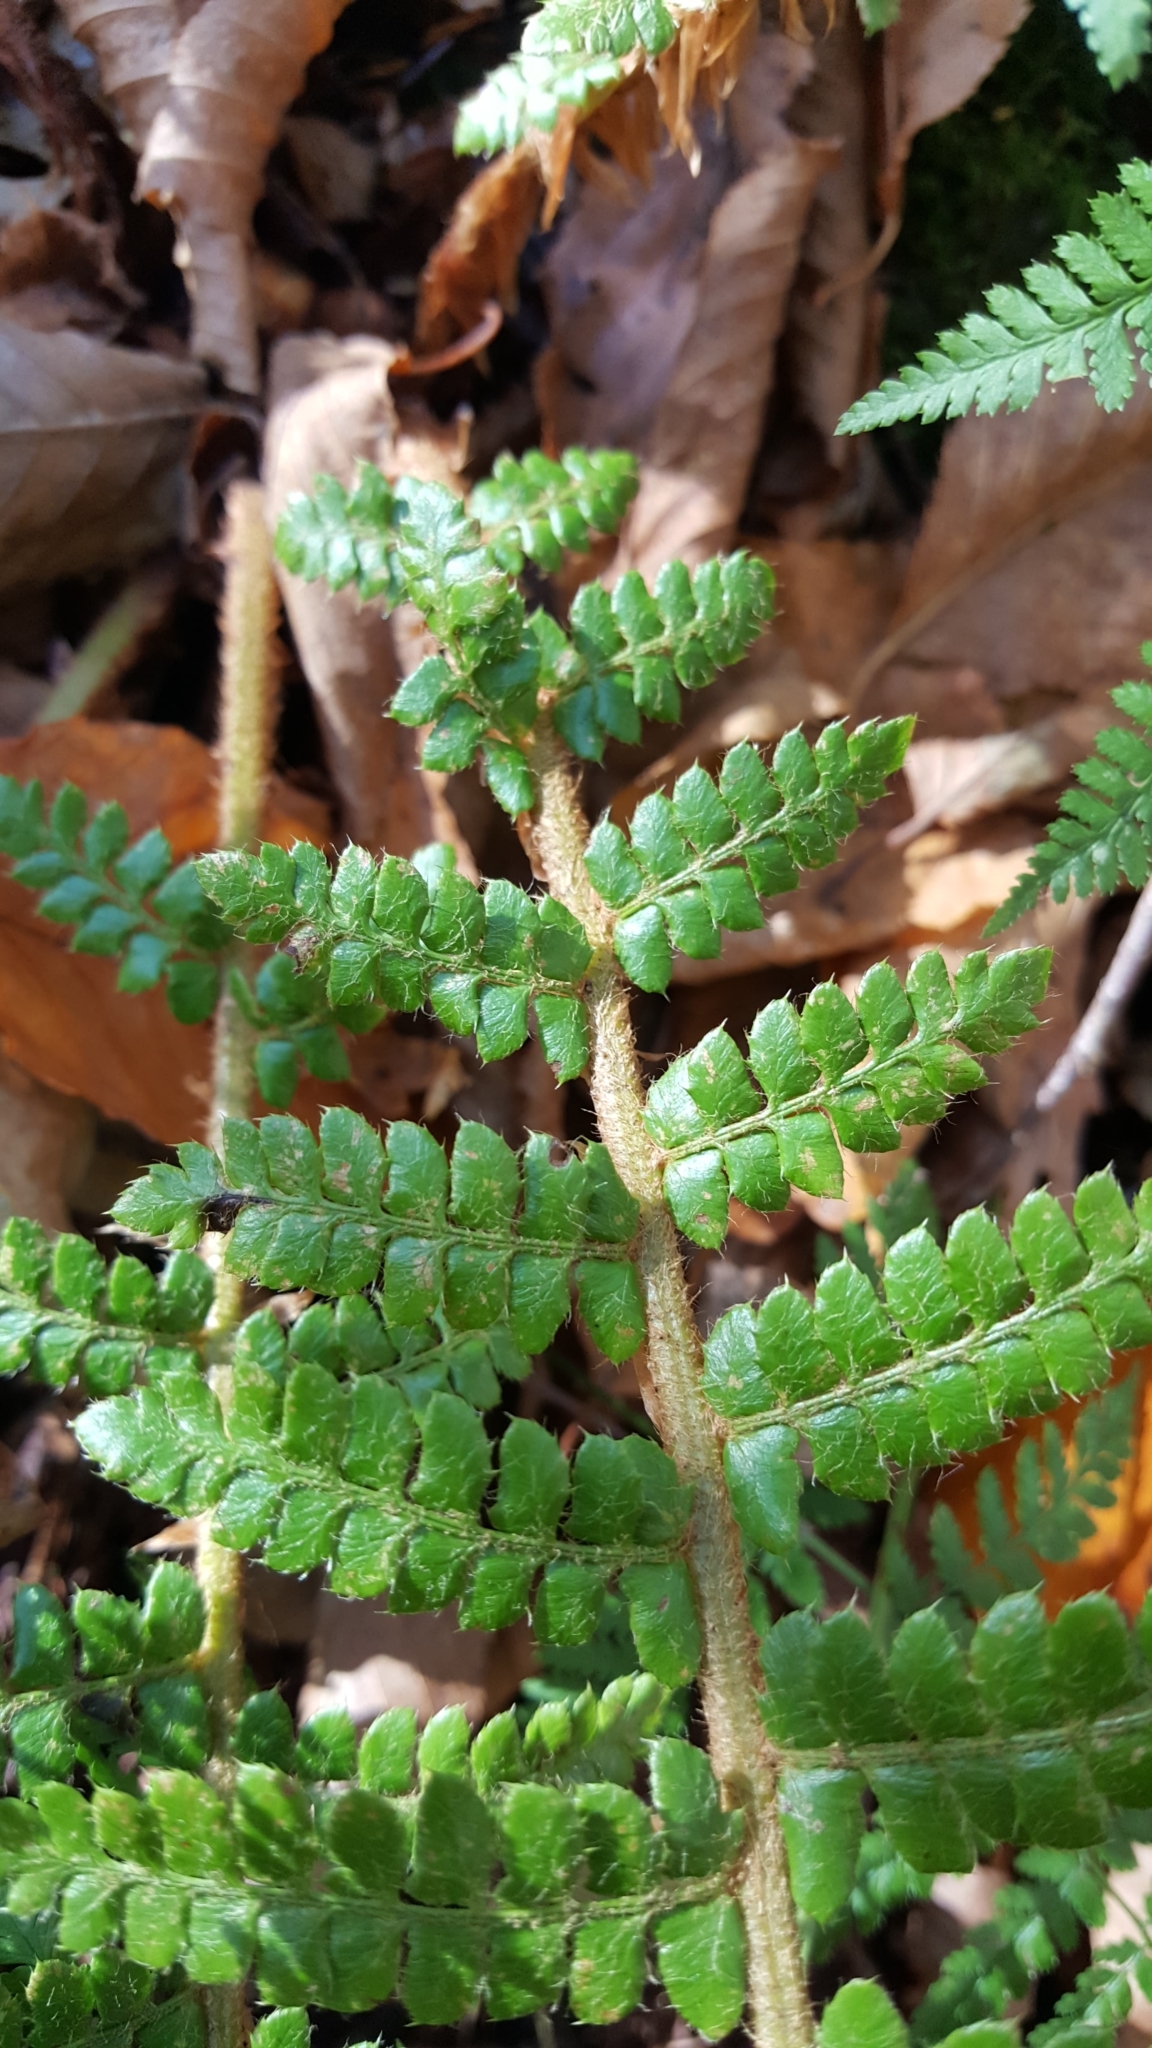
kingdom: Plantae
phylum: Tracheophyta
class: Polypodiopsida
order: Polypodiales
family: Dryopteridaceae
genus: Polystichum
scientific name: Polystichum braunii
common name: Braun's holly fern
